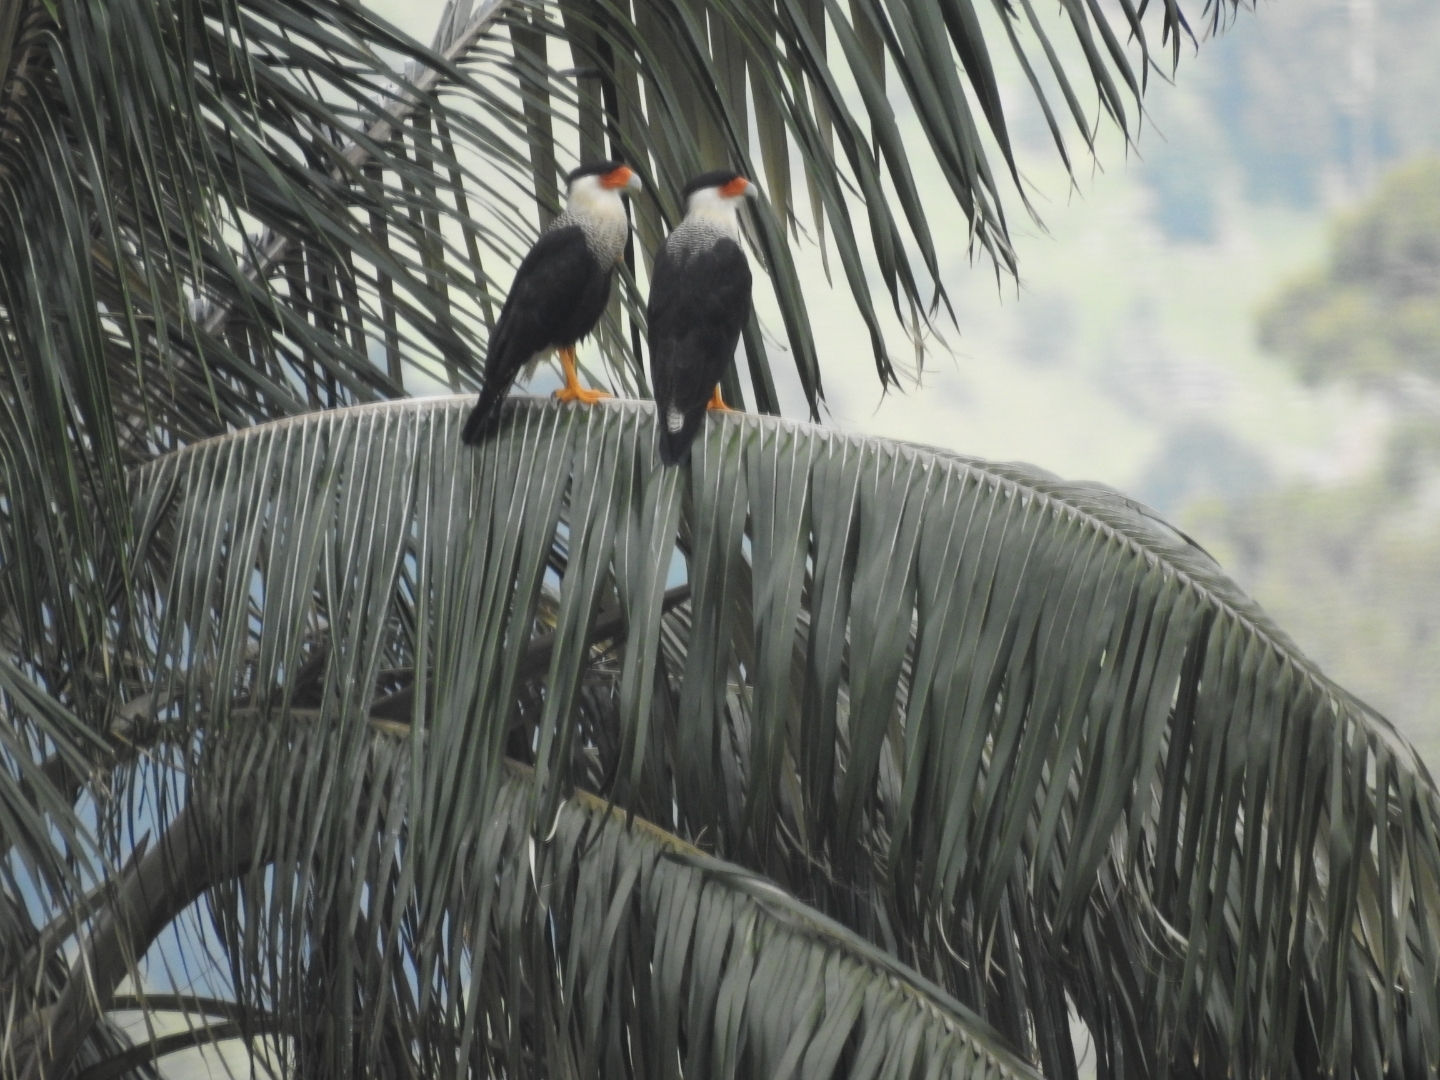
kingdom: Animalia
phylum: Chordata
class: Aves
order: Falconiformes
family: Falconidae
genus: Caracara
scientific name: Caracara plancus
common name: Southern caracara
